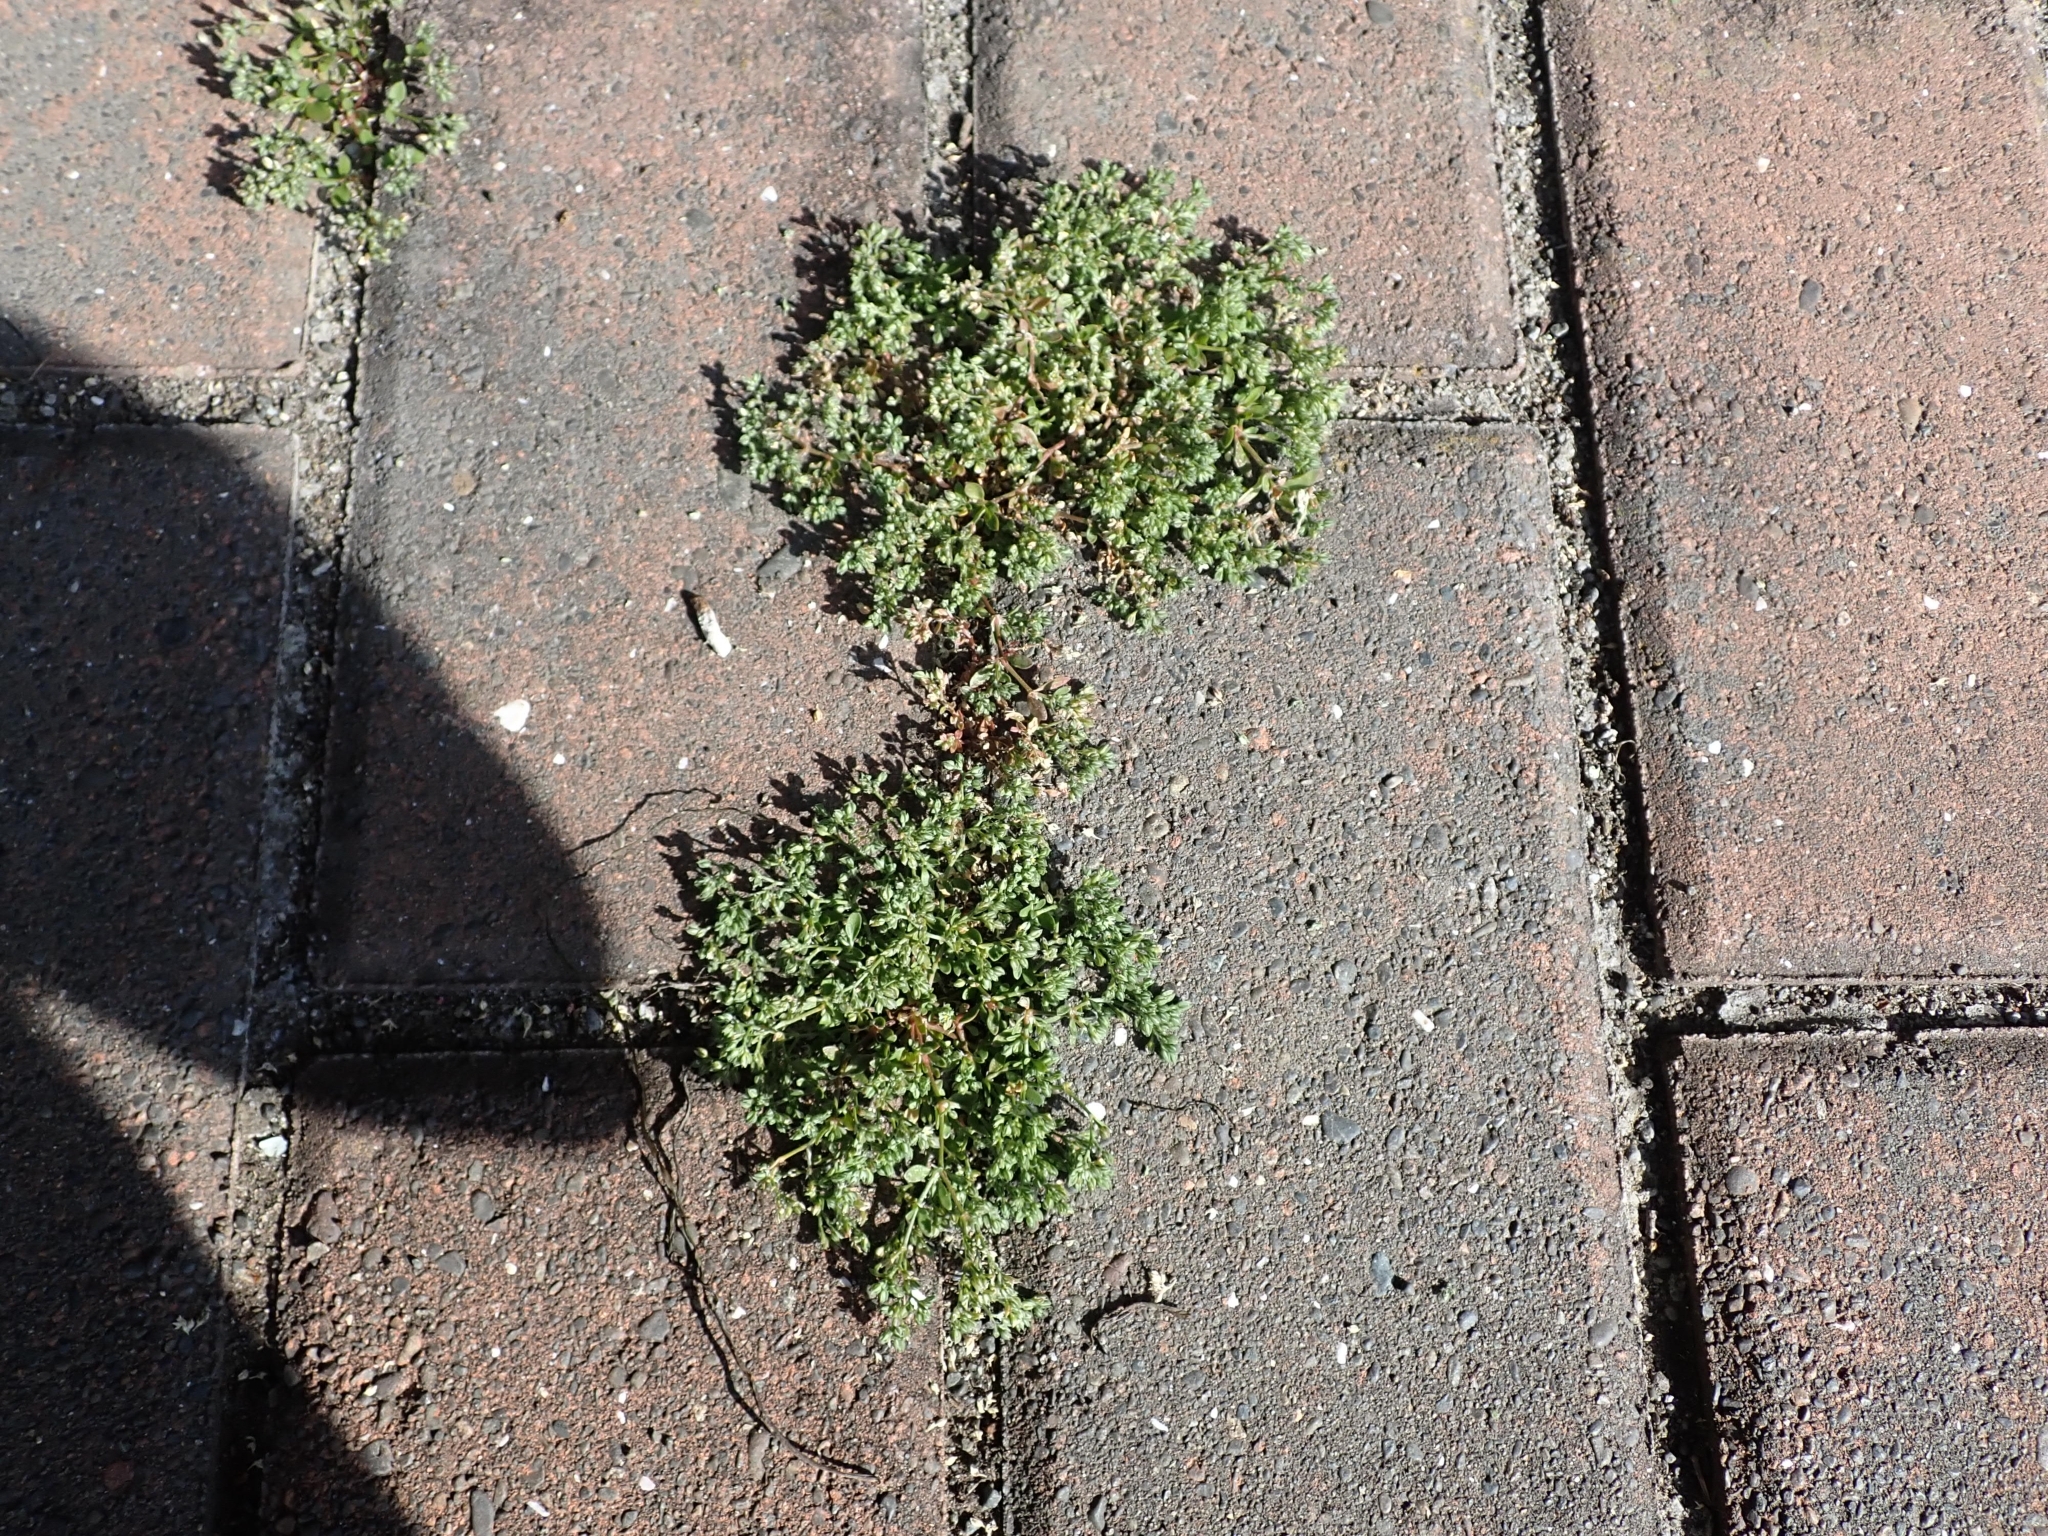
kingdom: Plantae
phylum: Tracheophyta
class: Magnoliopsida
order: Caryophyllales
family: Caryophyllaceae
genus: Polycarpon
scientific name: Polycarpon tetraphyllum
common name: Four-leaved all-seed
